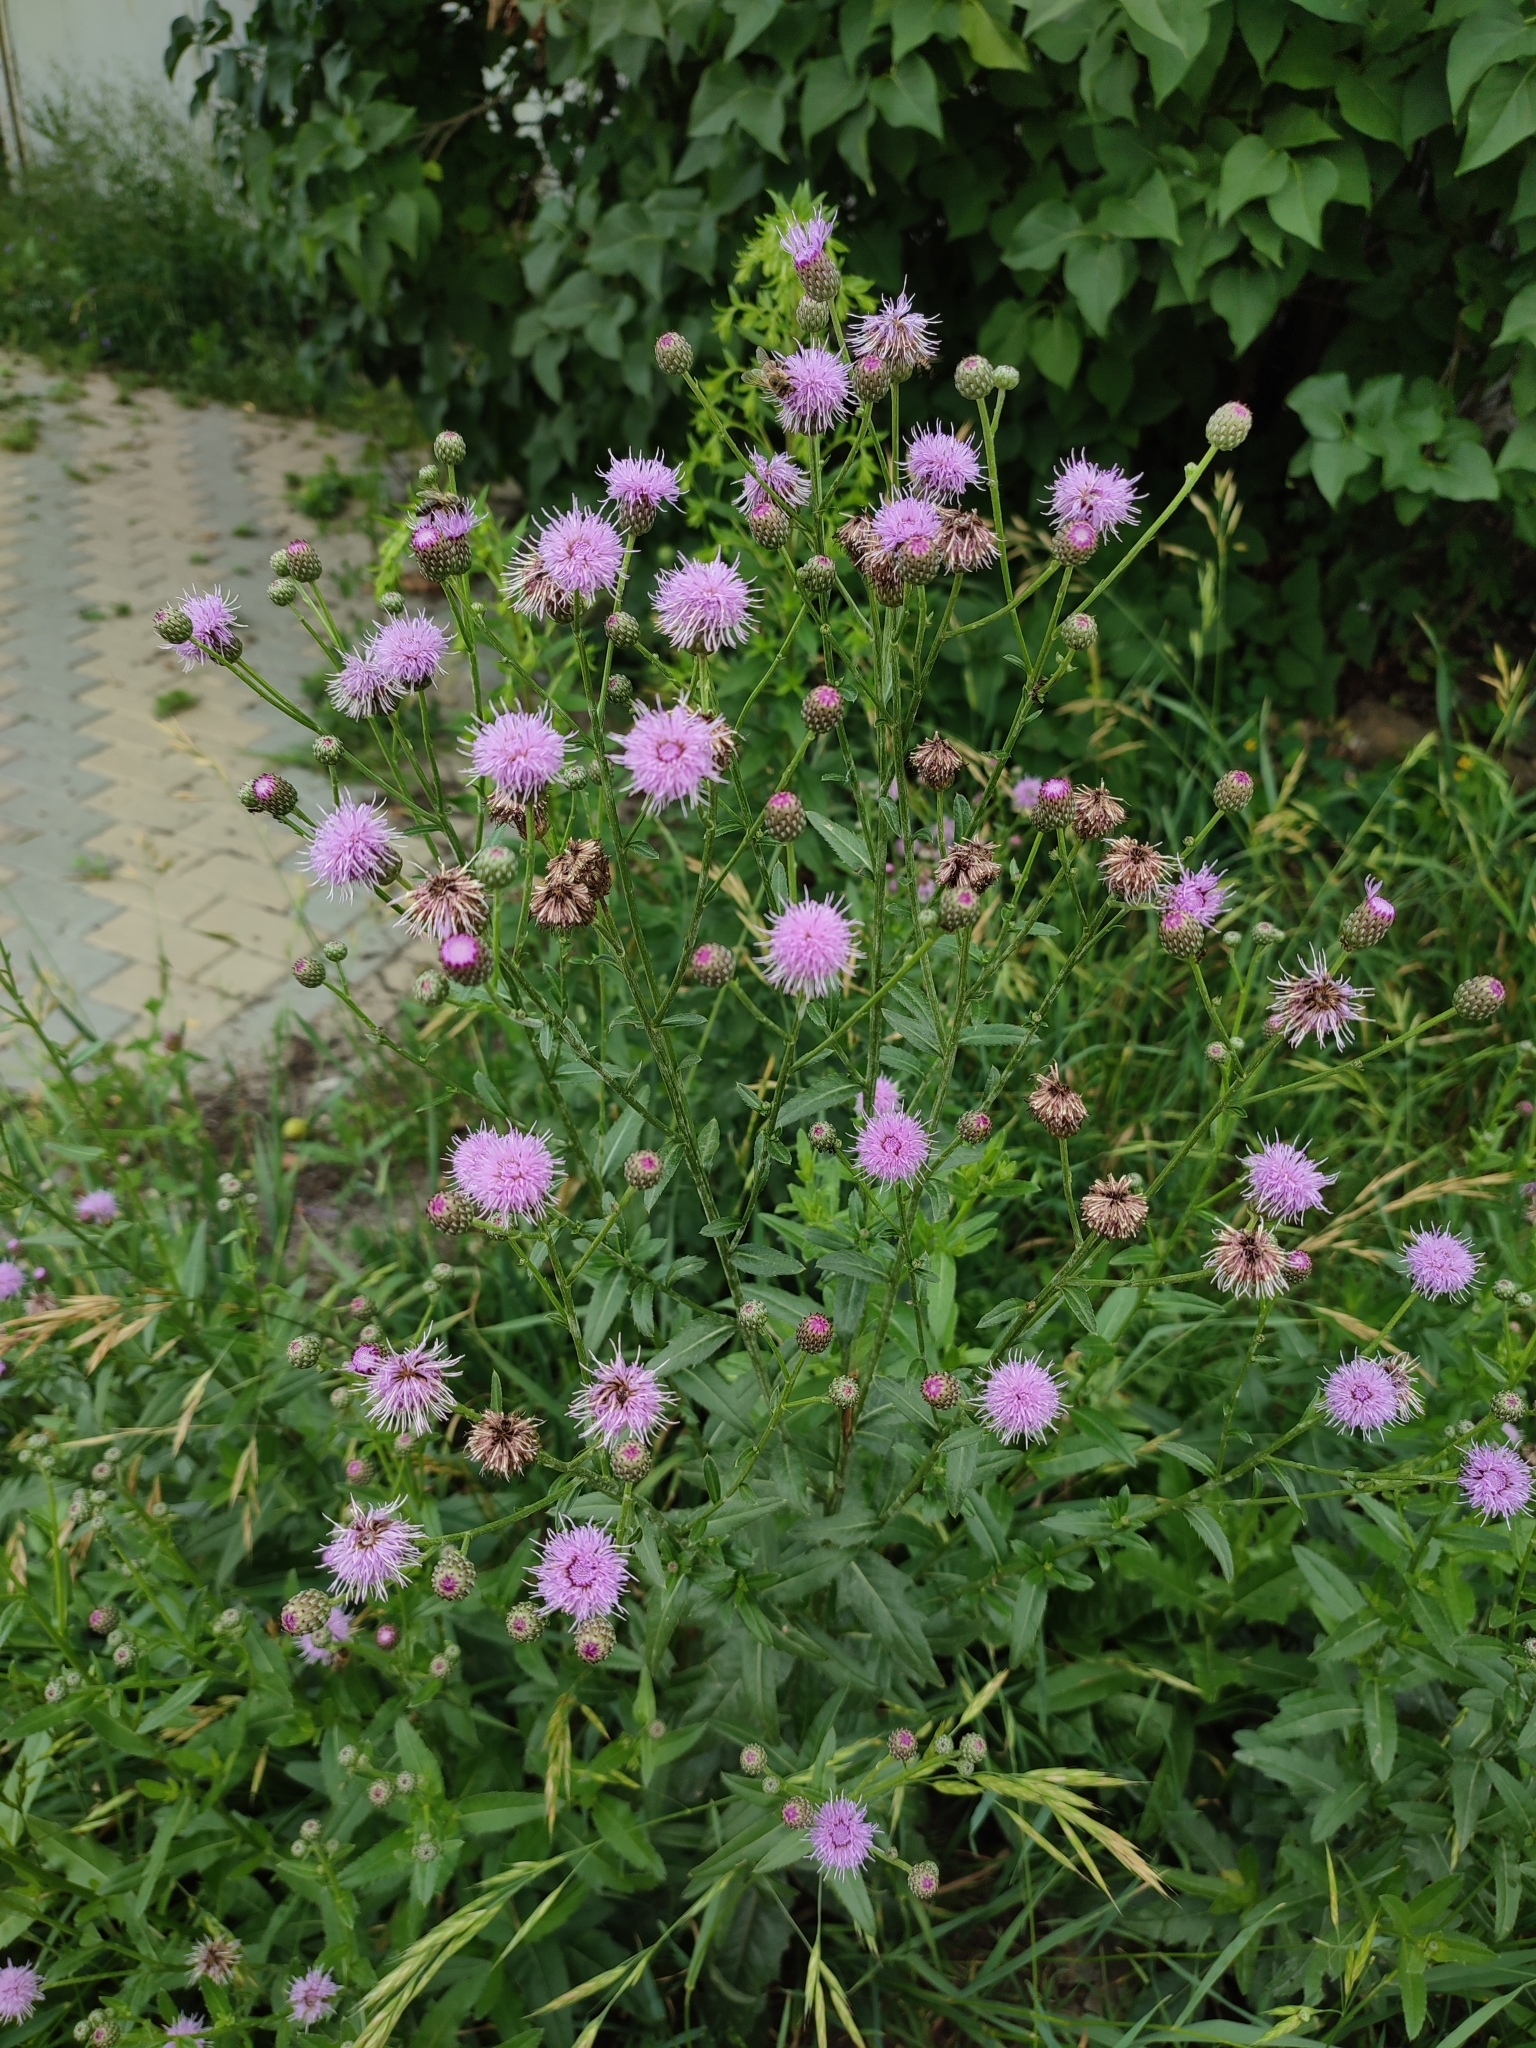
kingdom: Plantae
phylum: Tracheophyta
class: Magnoliopsida
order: Asterales
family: Asteraceae
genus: Cirsium
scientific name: Cirsium arvense
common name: Creeping thistle
